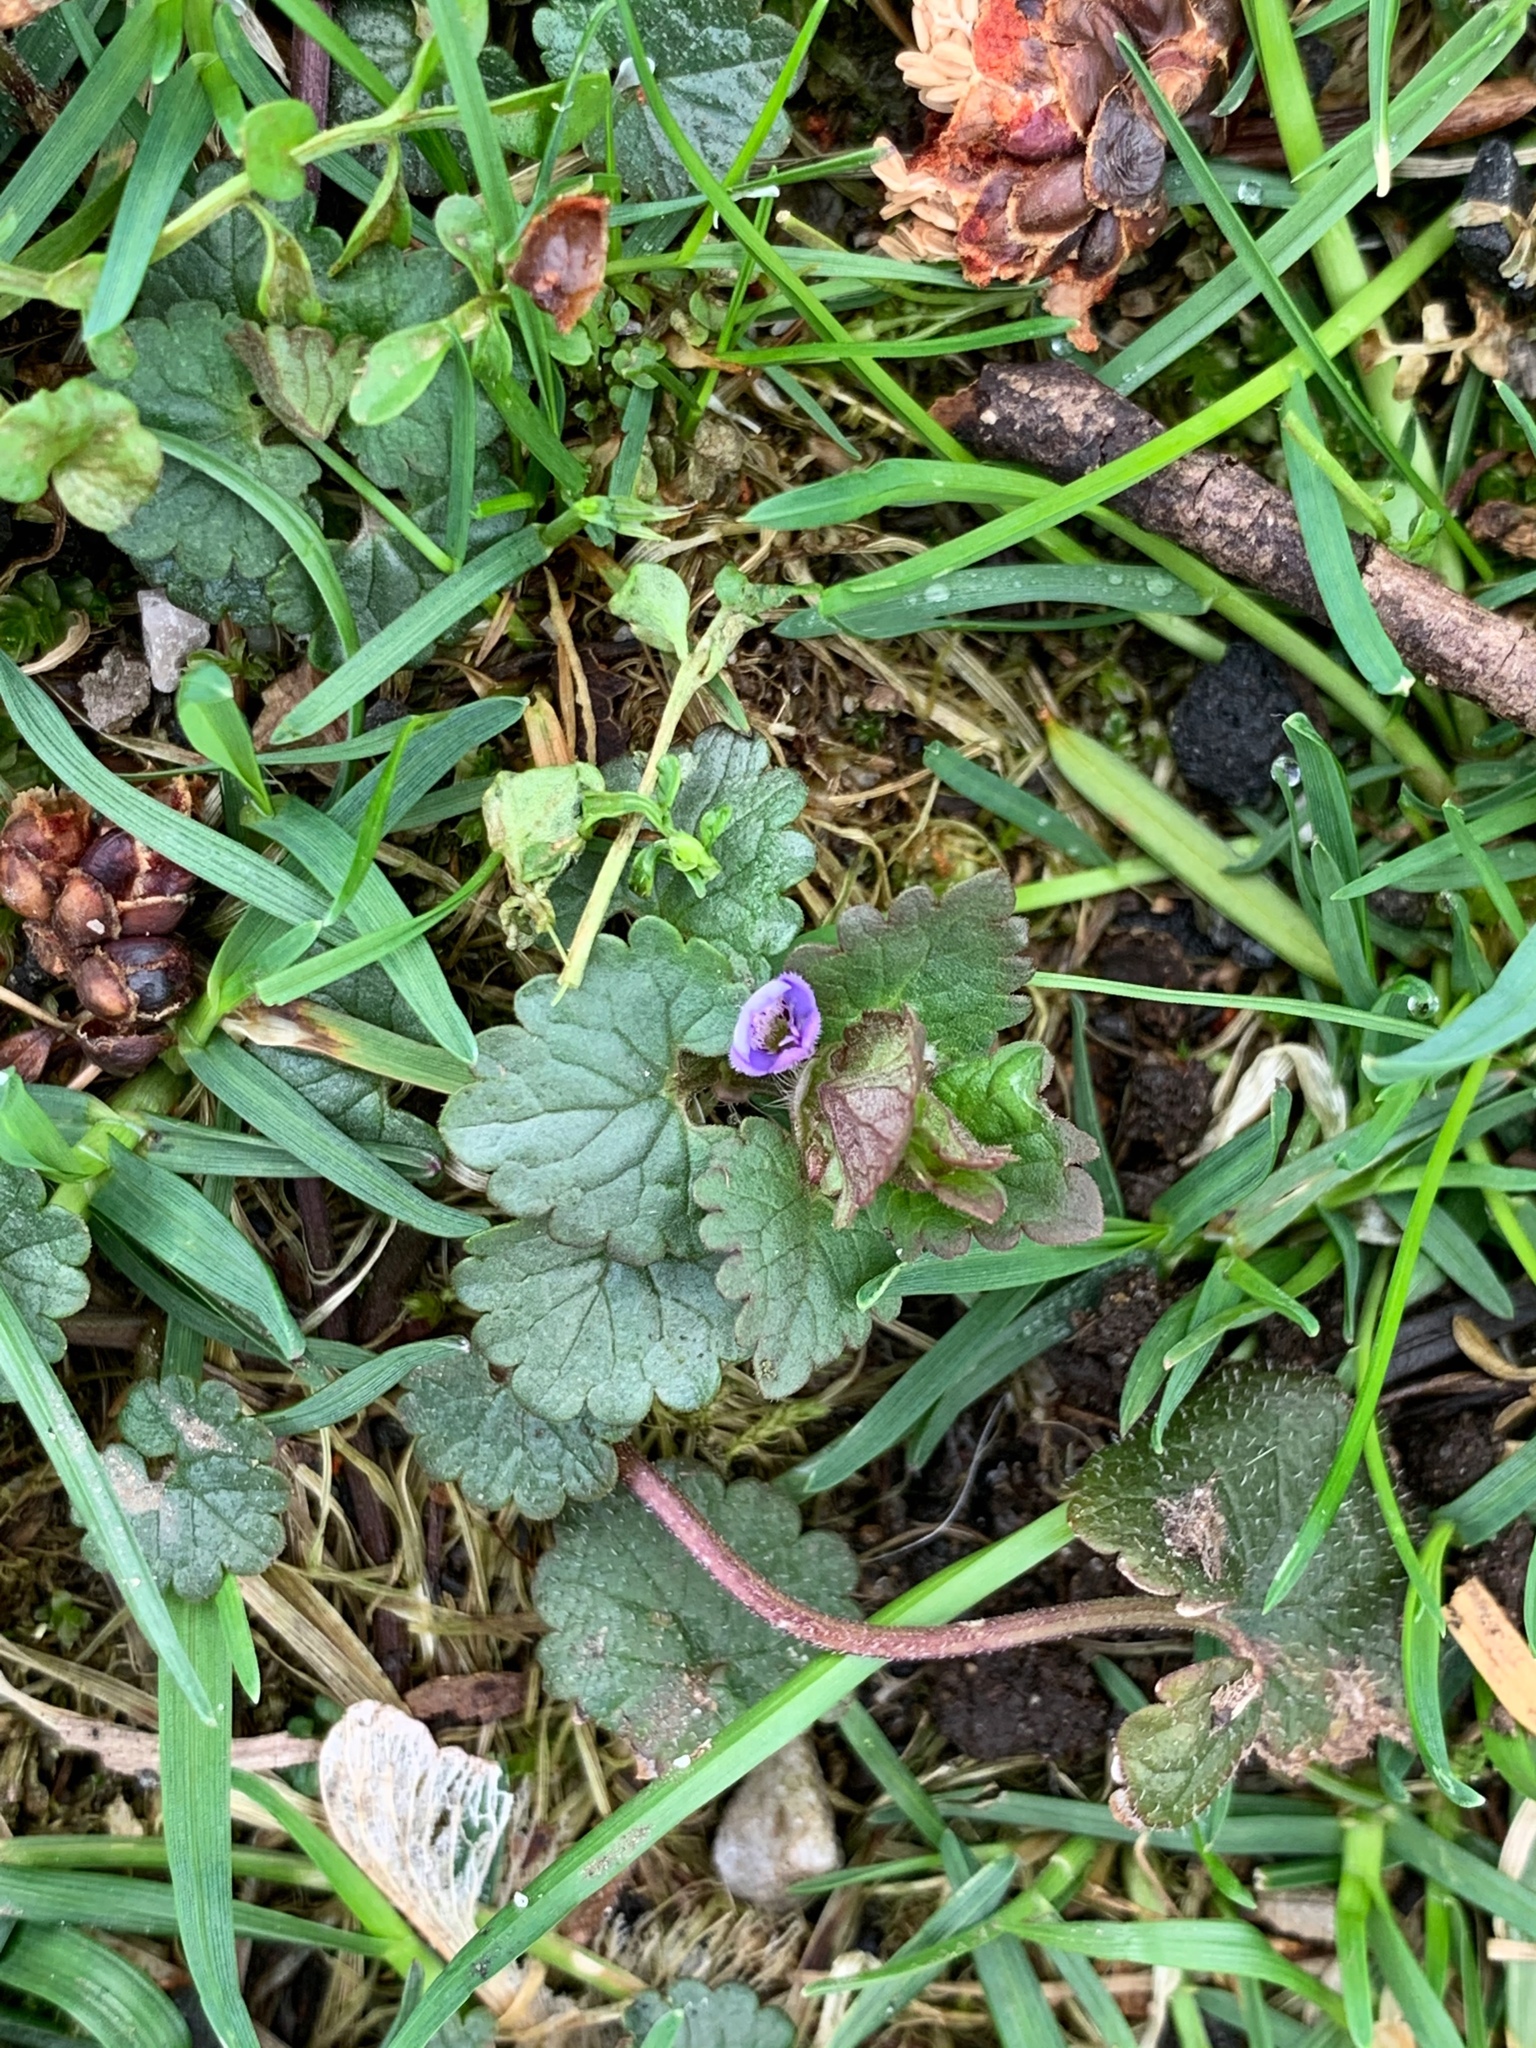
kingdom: Plantae
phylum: Tracheophyta
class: Magnoliopsida
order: Lamiales
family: Lamiaceae
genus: Glechoma
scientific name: Glechoma hederacea
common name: Ground ivy
